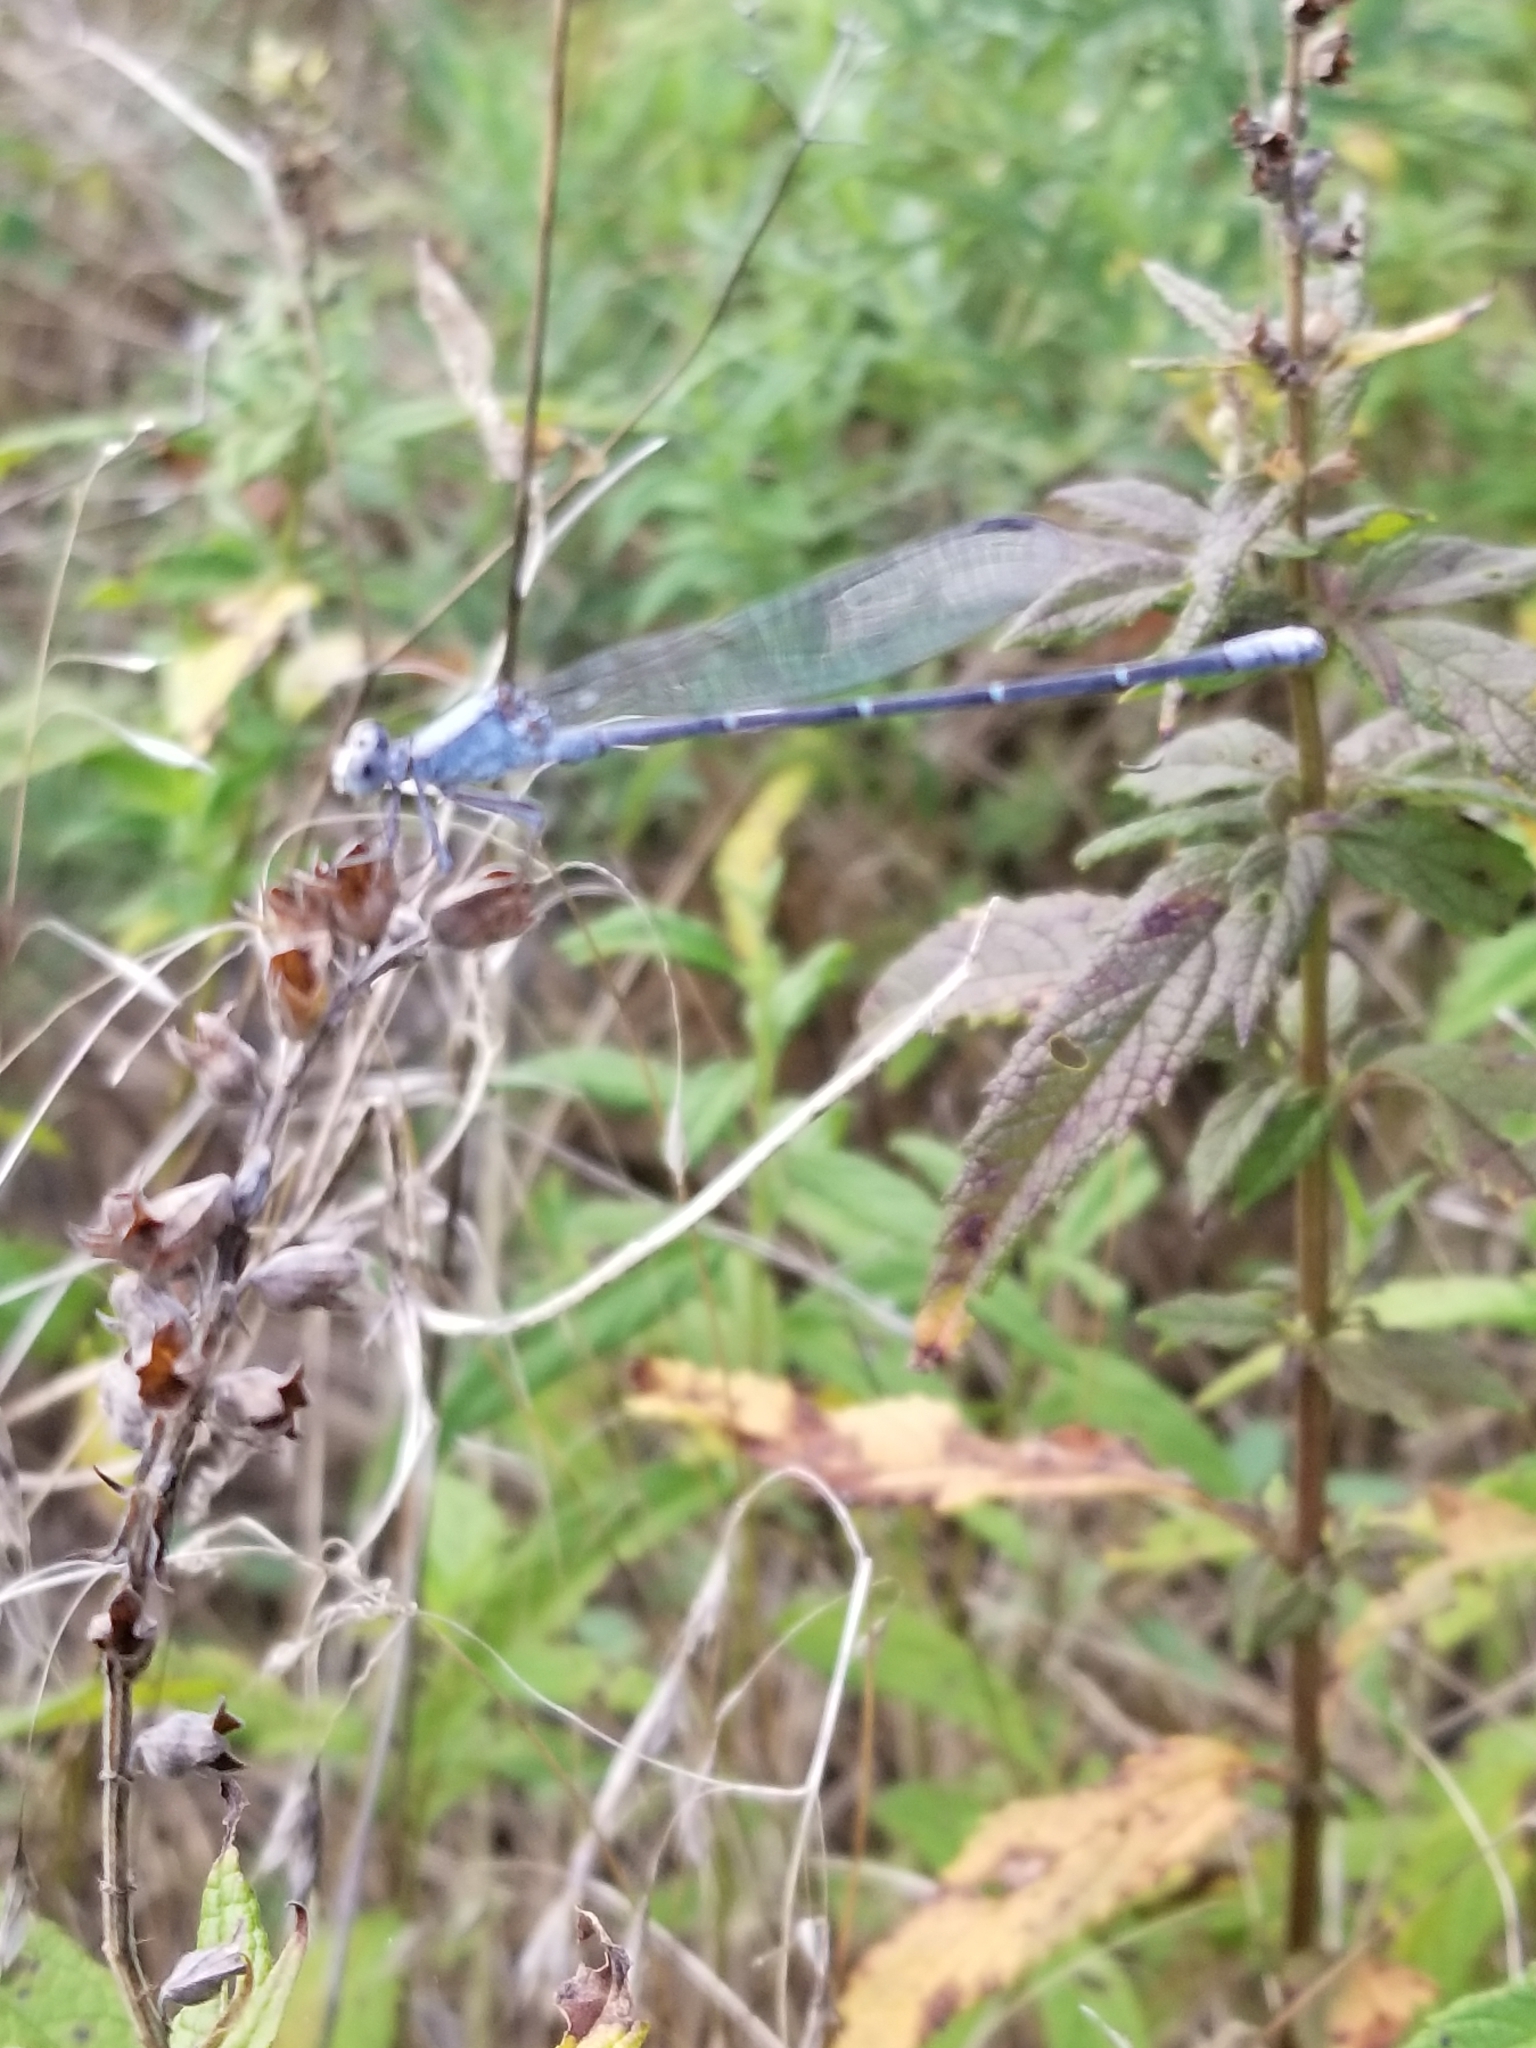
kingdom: Animalia
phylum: Arthropoda
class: Insecta
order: Odonata
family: Coenagrionidae
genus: Argia
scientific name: Argia moesta
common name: Powdered dancer
